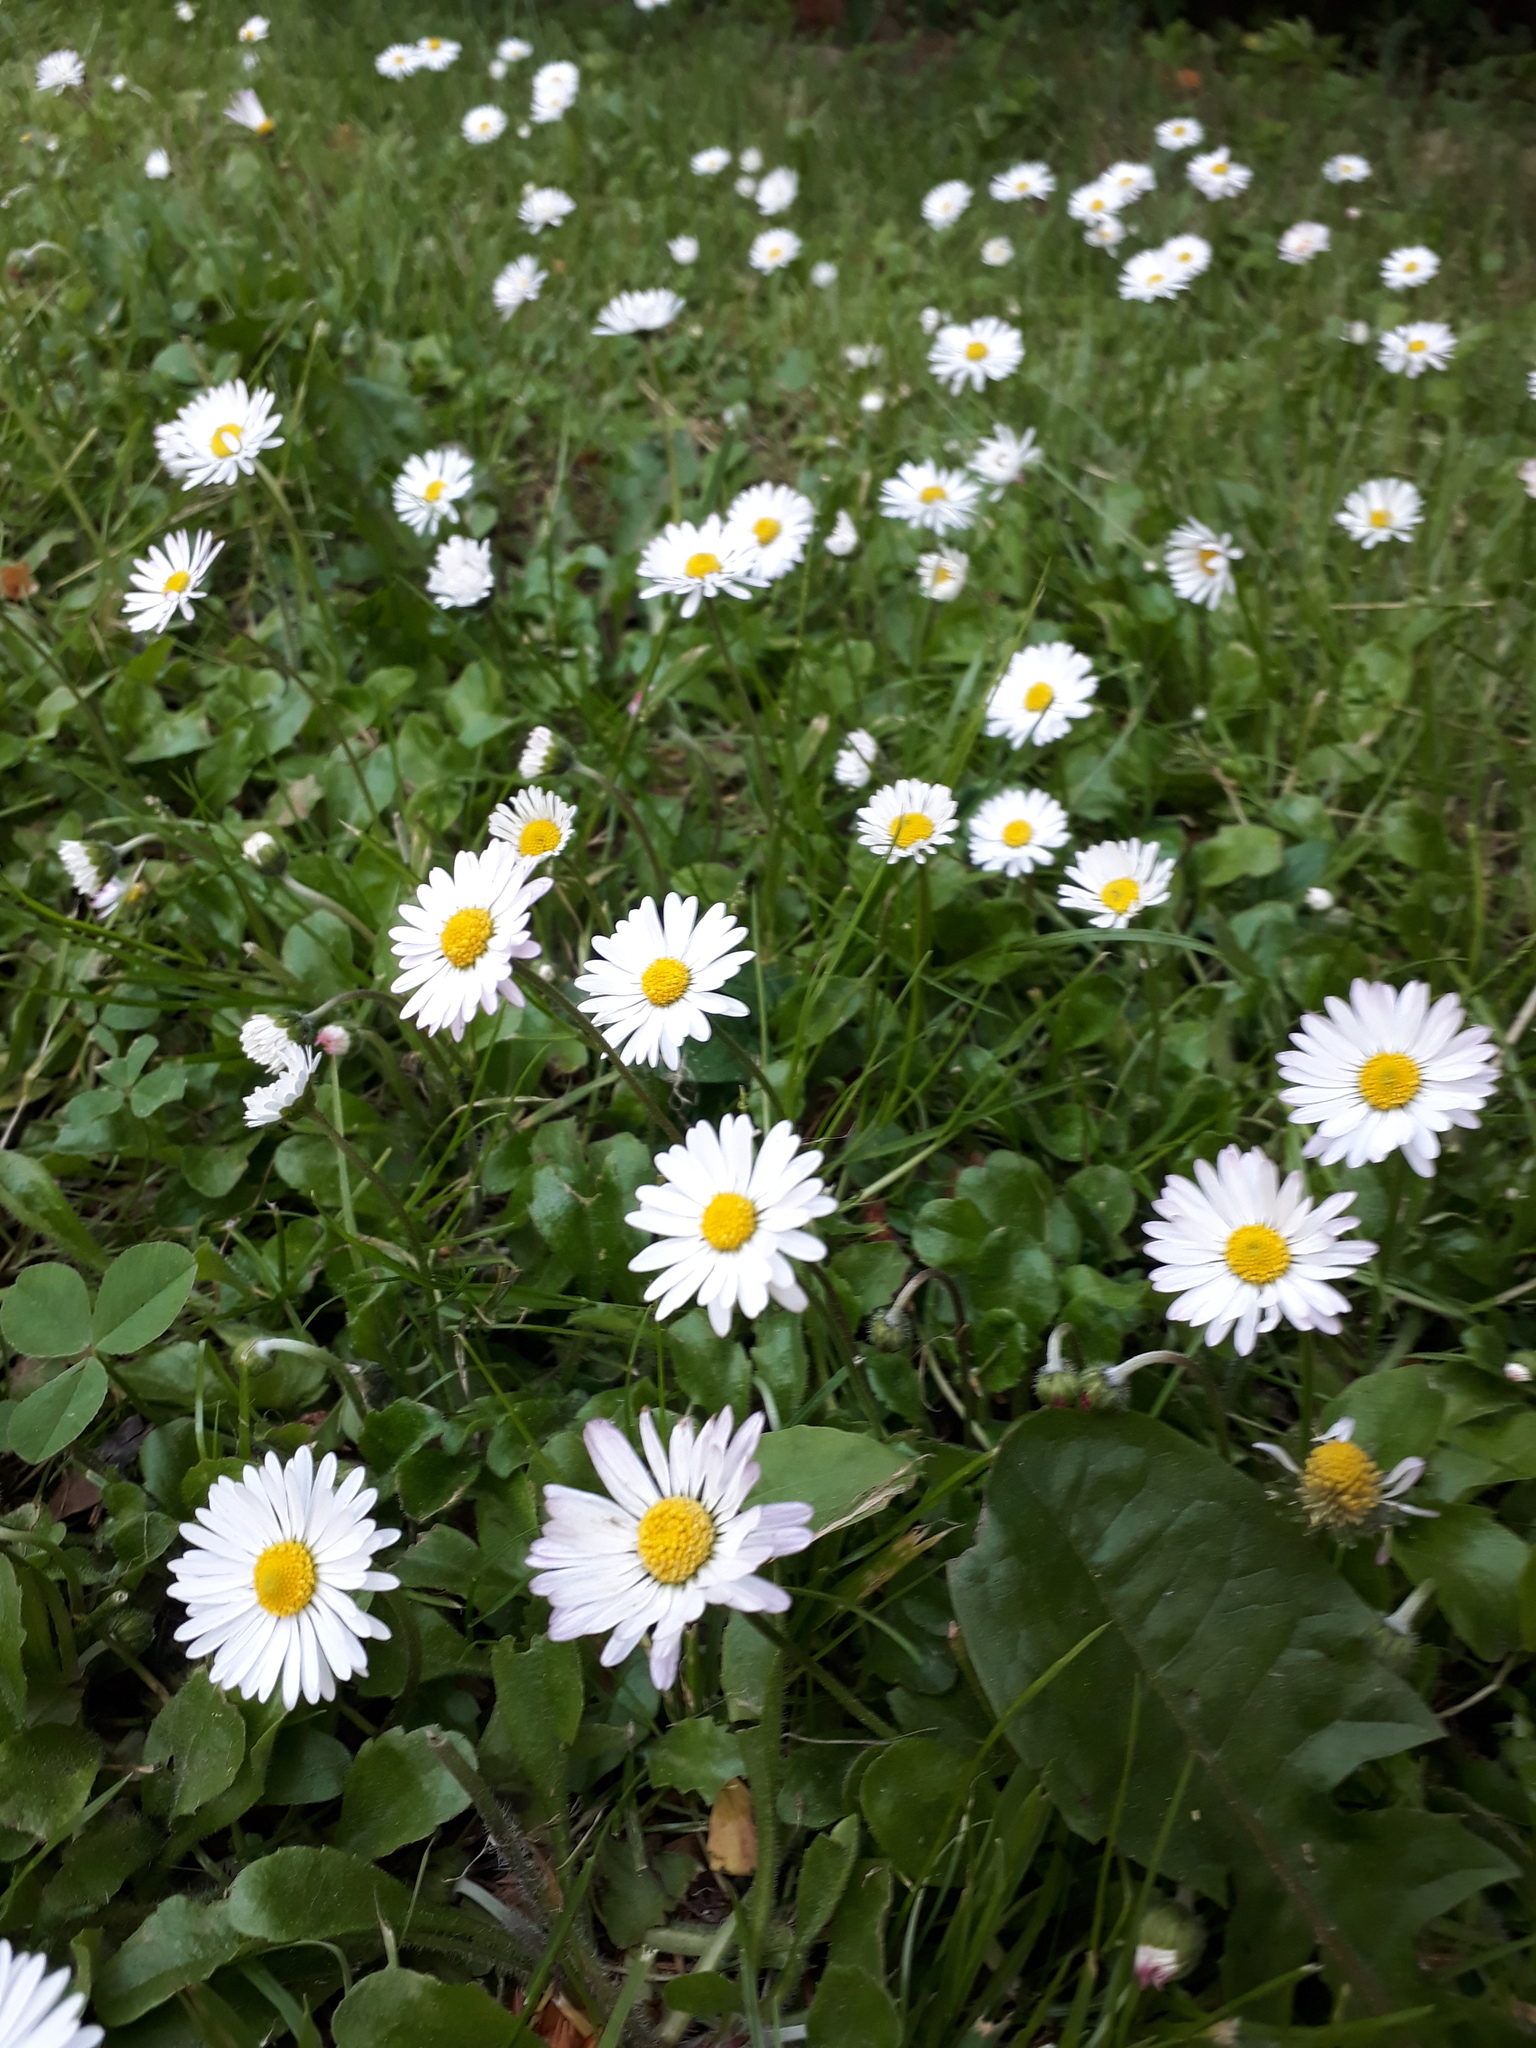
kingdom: Plantae
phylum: Tracheophyta
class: Magnoliopsida
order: Asterales
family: Asteraceae
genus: Bellis
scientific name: Bellis perennis
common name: Lawndaisy
